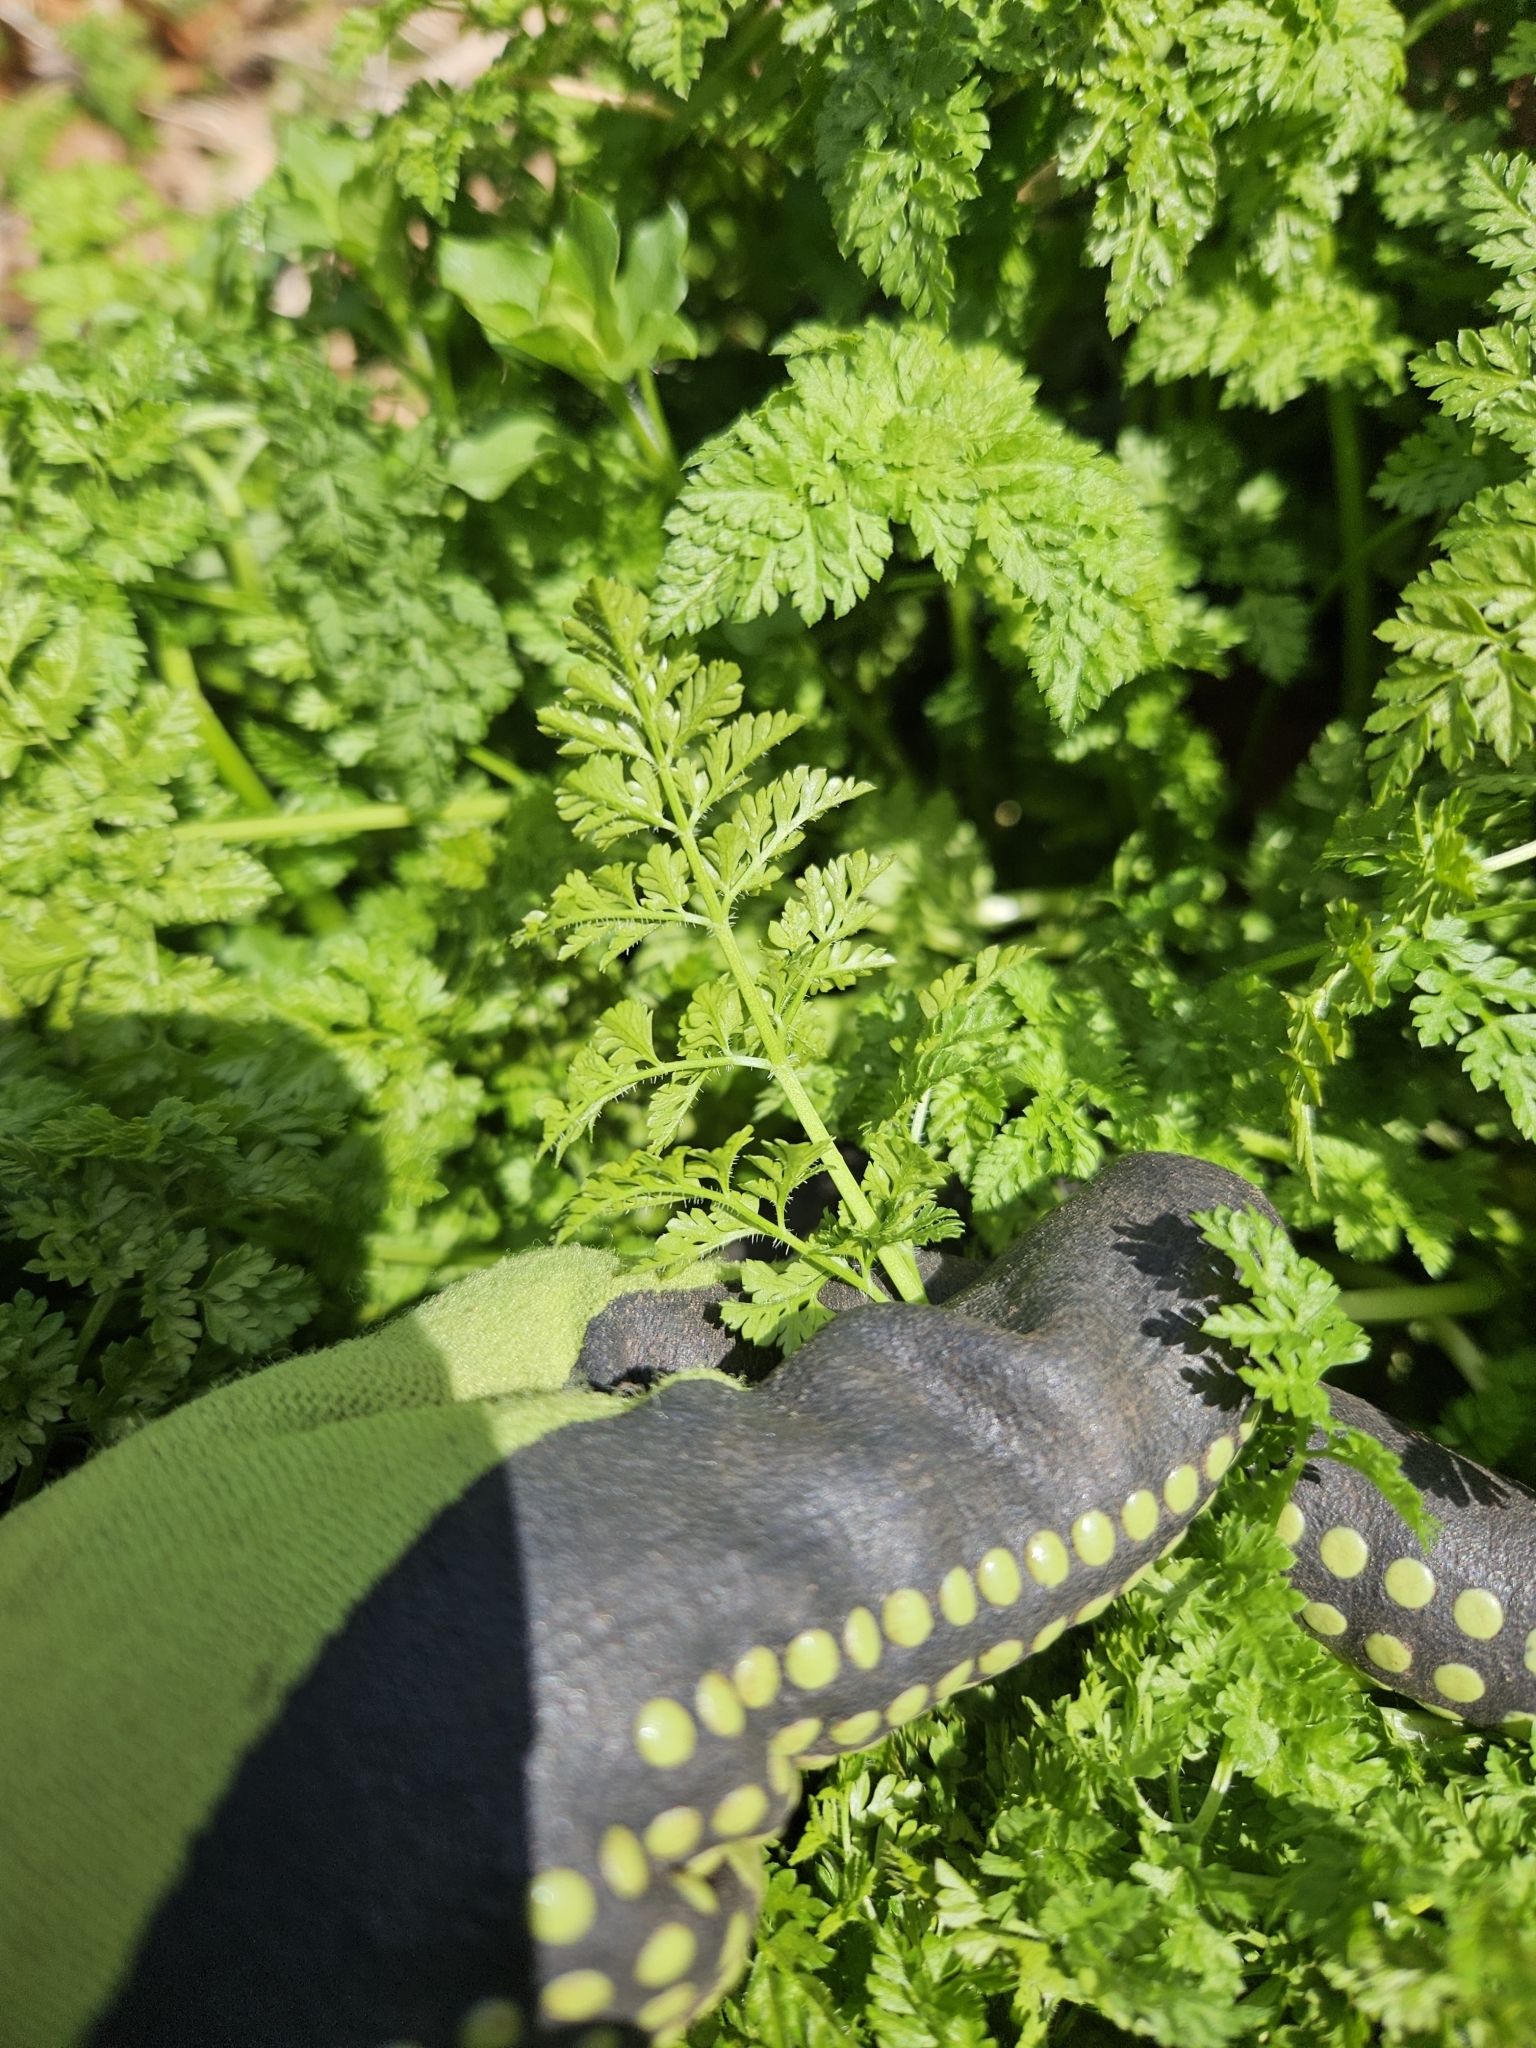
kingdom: Plantae
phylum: Tracheophyta
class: Magnoliopsida
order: Apiales
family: Apiaceae
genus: Anthriscus
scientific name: Anthriscus caucalis
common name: Bur chervil
